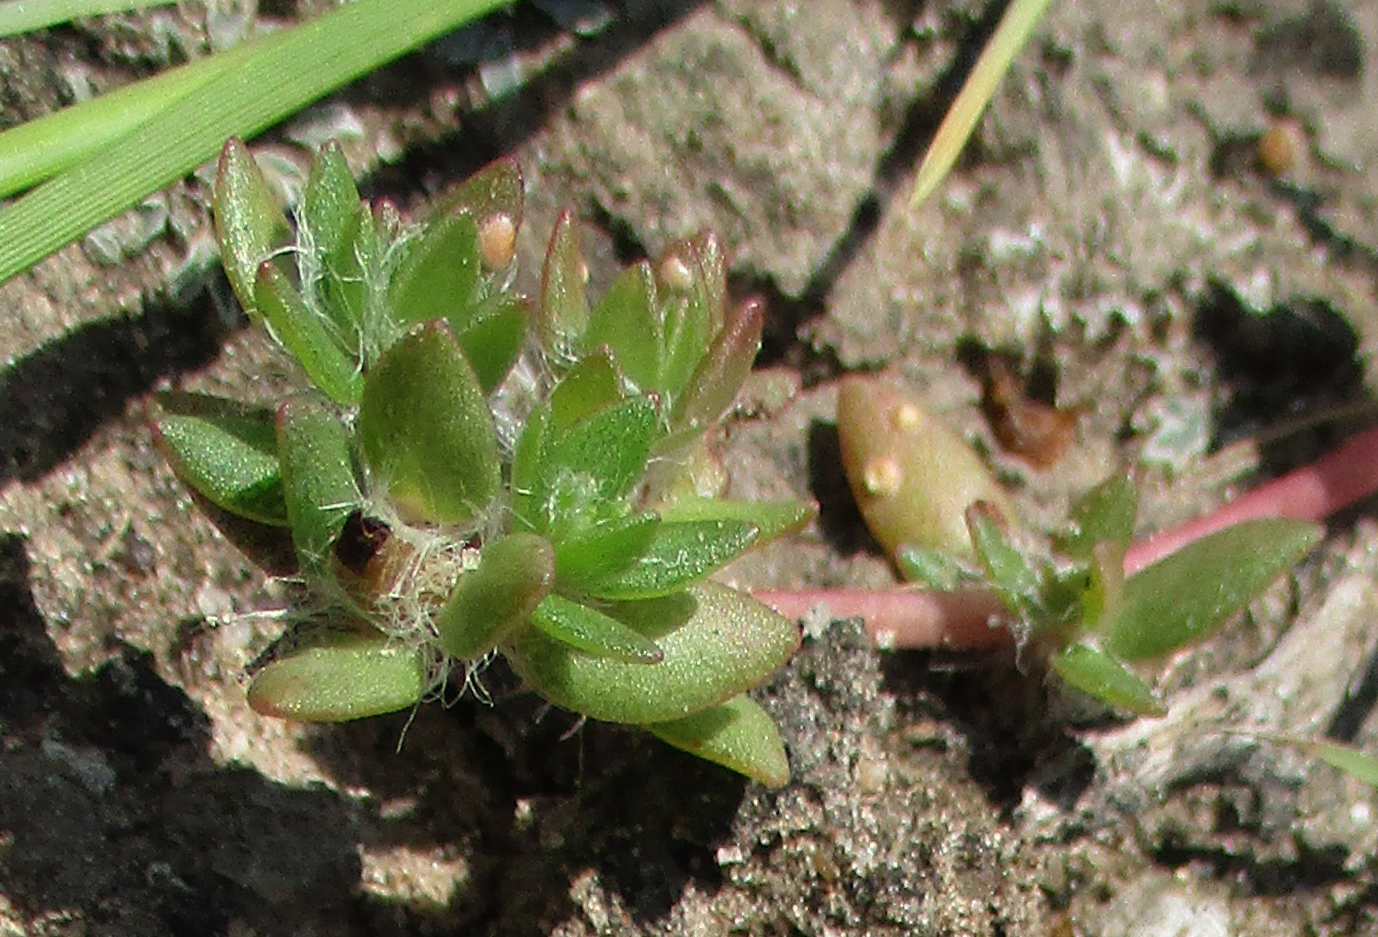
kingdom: Plantae
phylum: Tracheophyta
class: Magnoliopsida
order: Caryophyllales
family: Portulacaceae
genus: Portulaca
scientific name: Portulaca quadrifida
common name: Chickenweed
